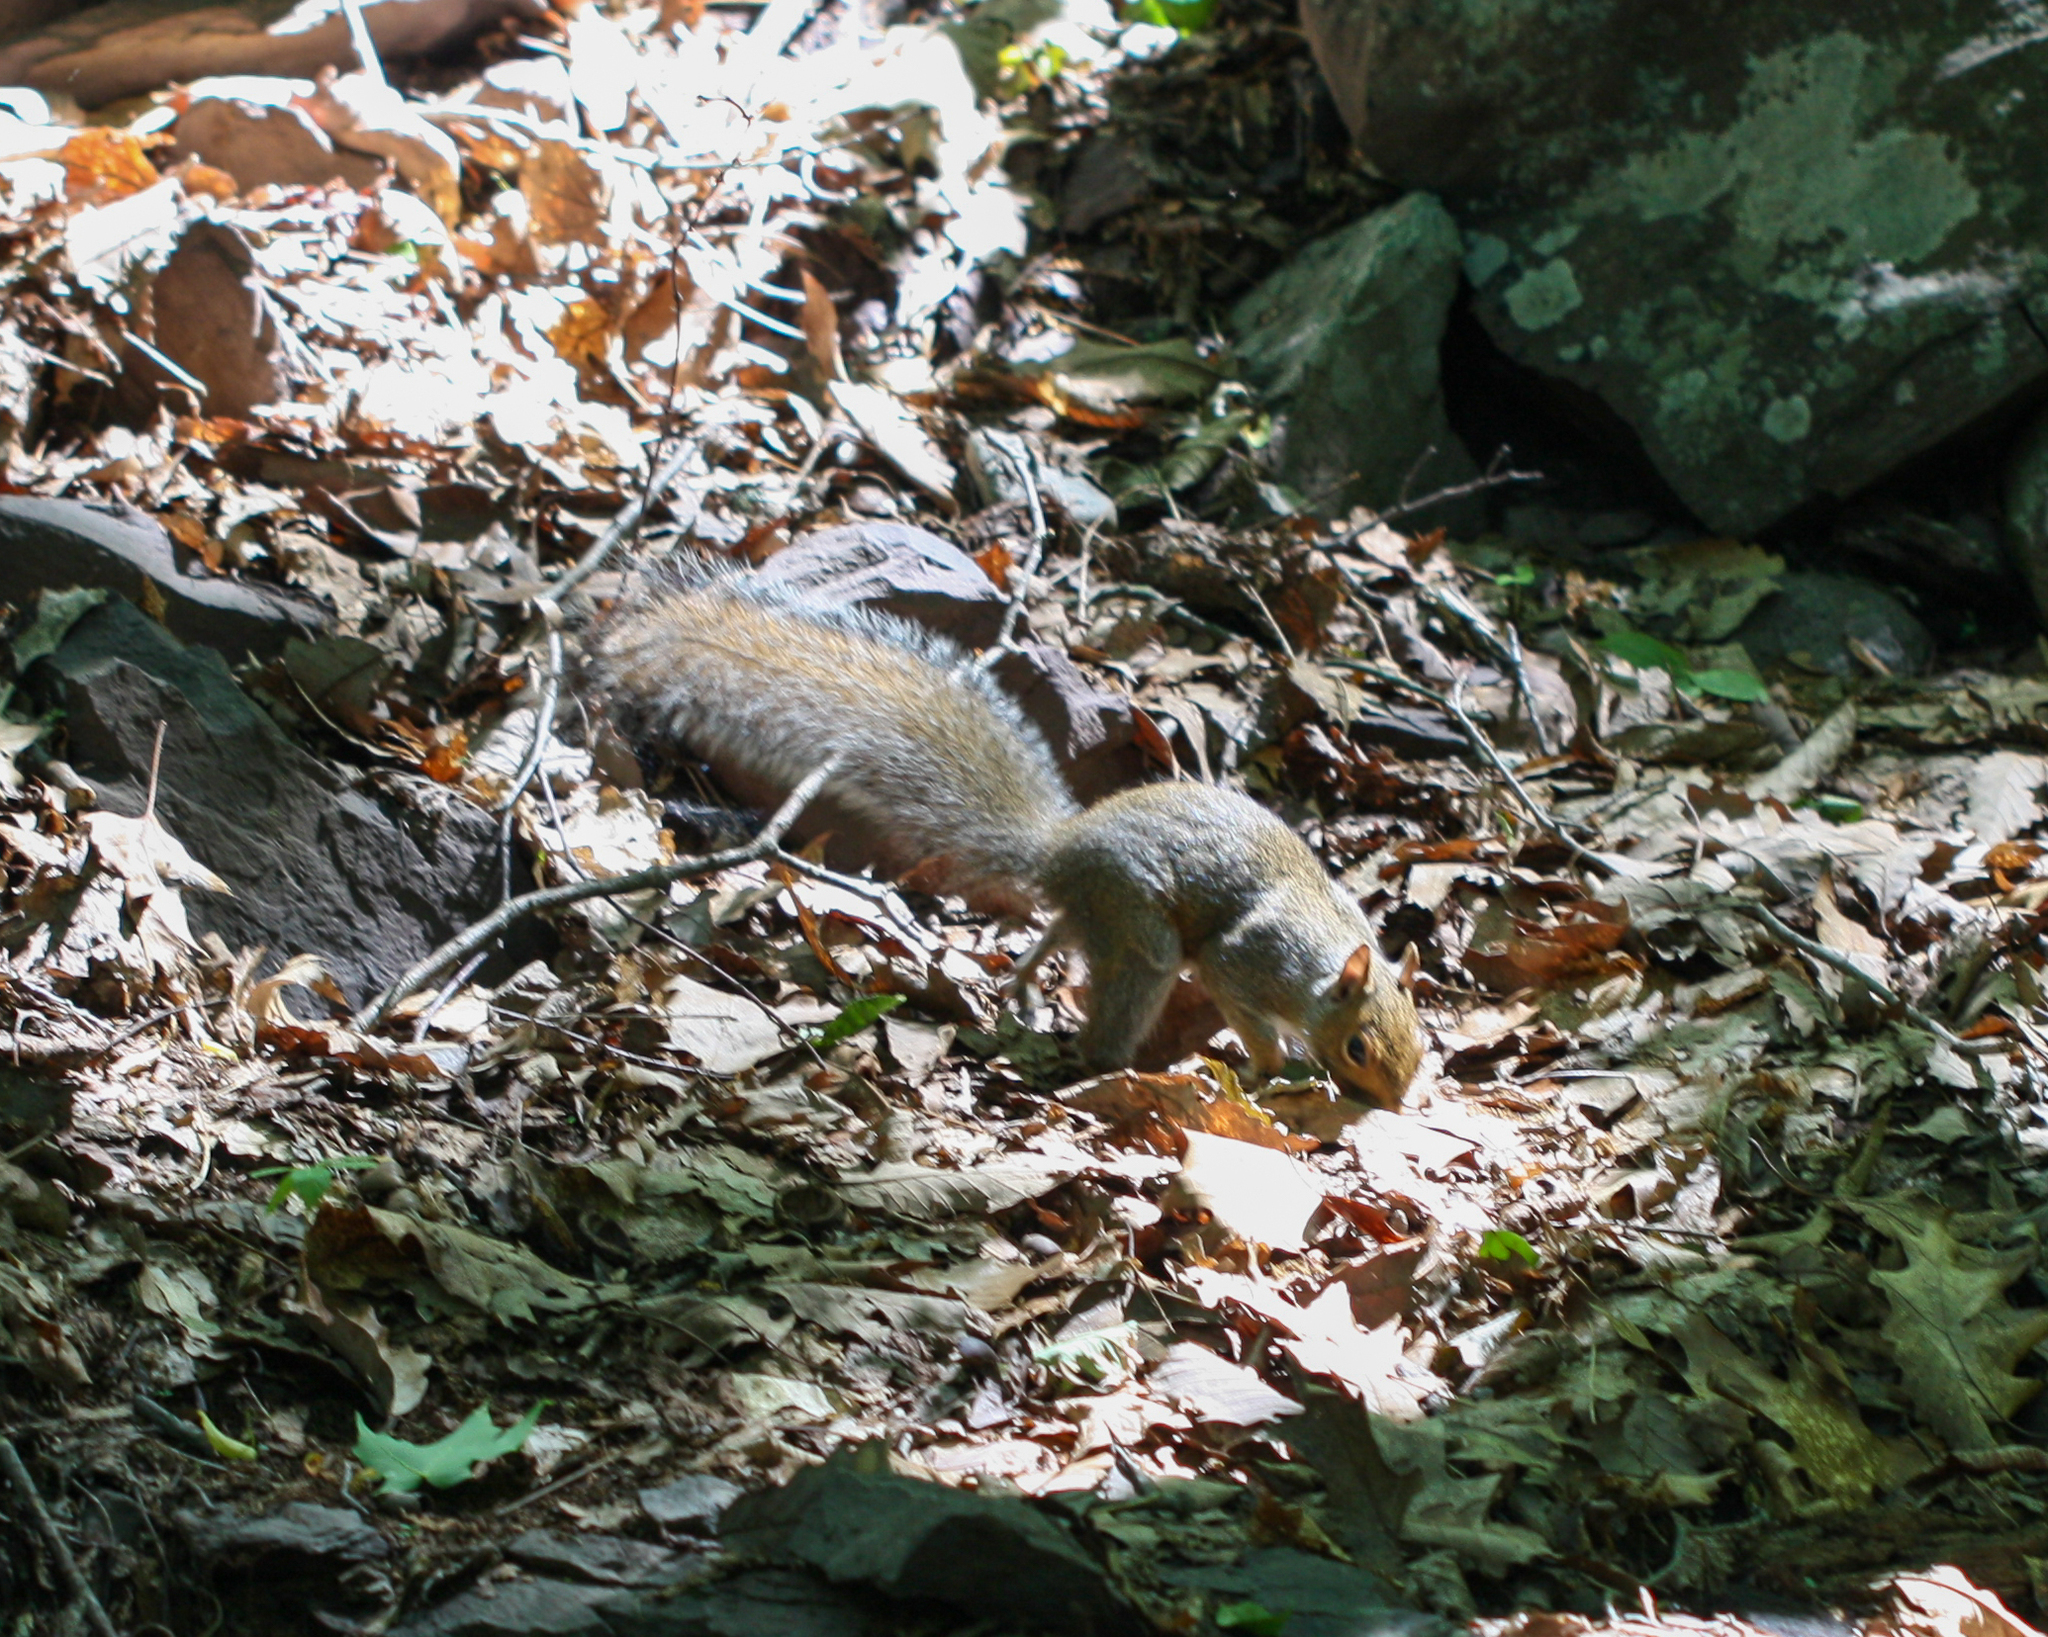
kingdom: Animalia
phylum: Chordata
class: Mammalia
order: Rodentia
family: Sciuridae
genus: Sciurus
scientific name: Sciurus carolinensis
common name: Eastern gray squirrel
